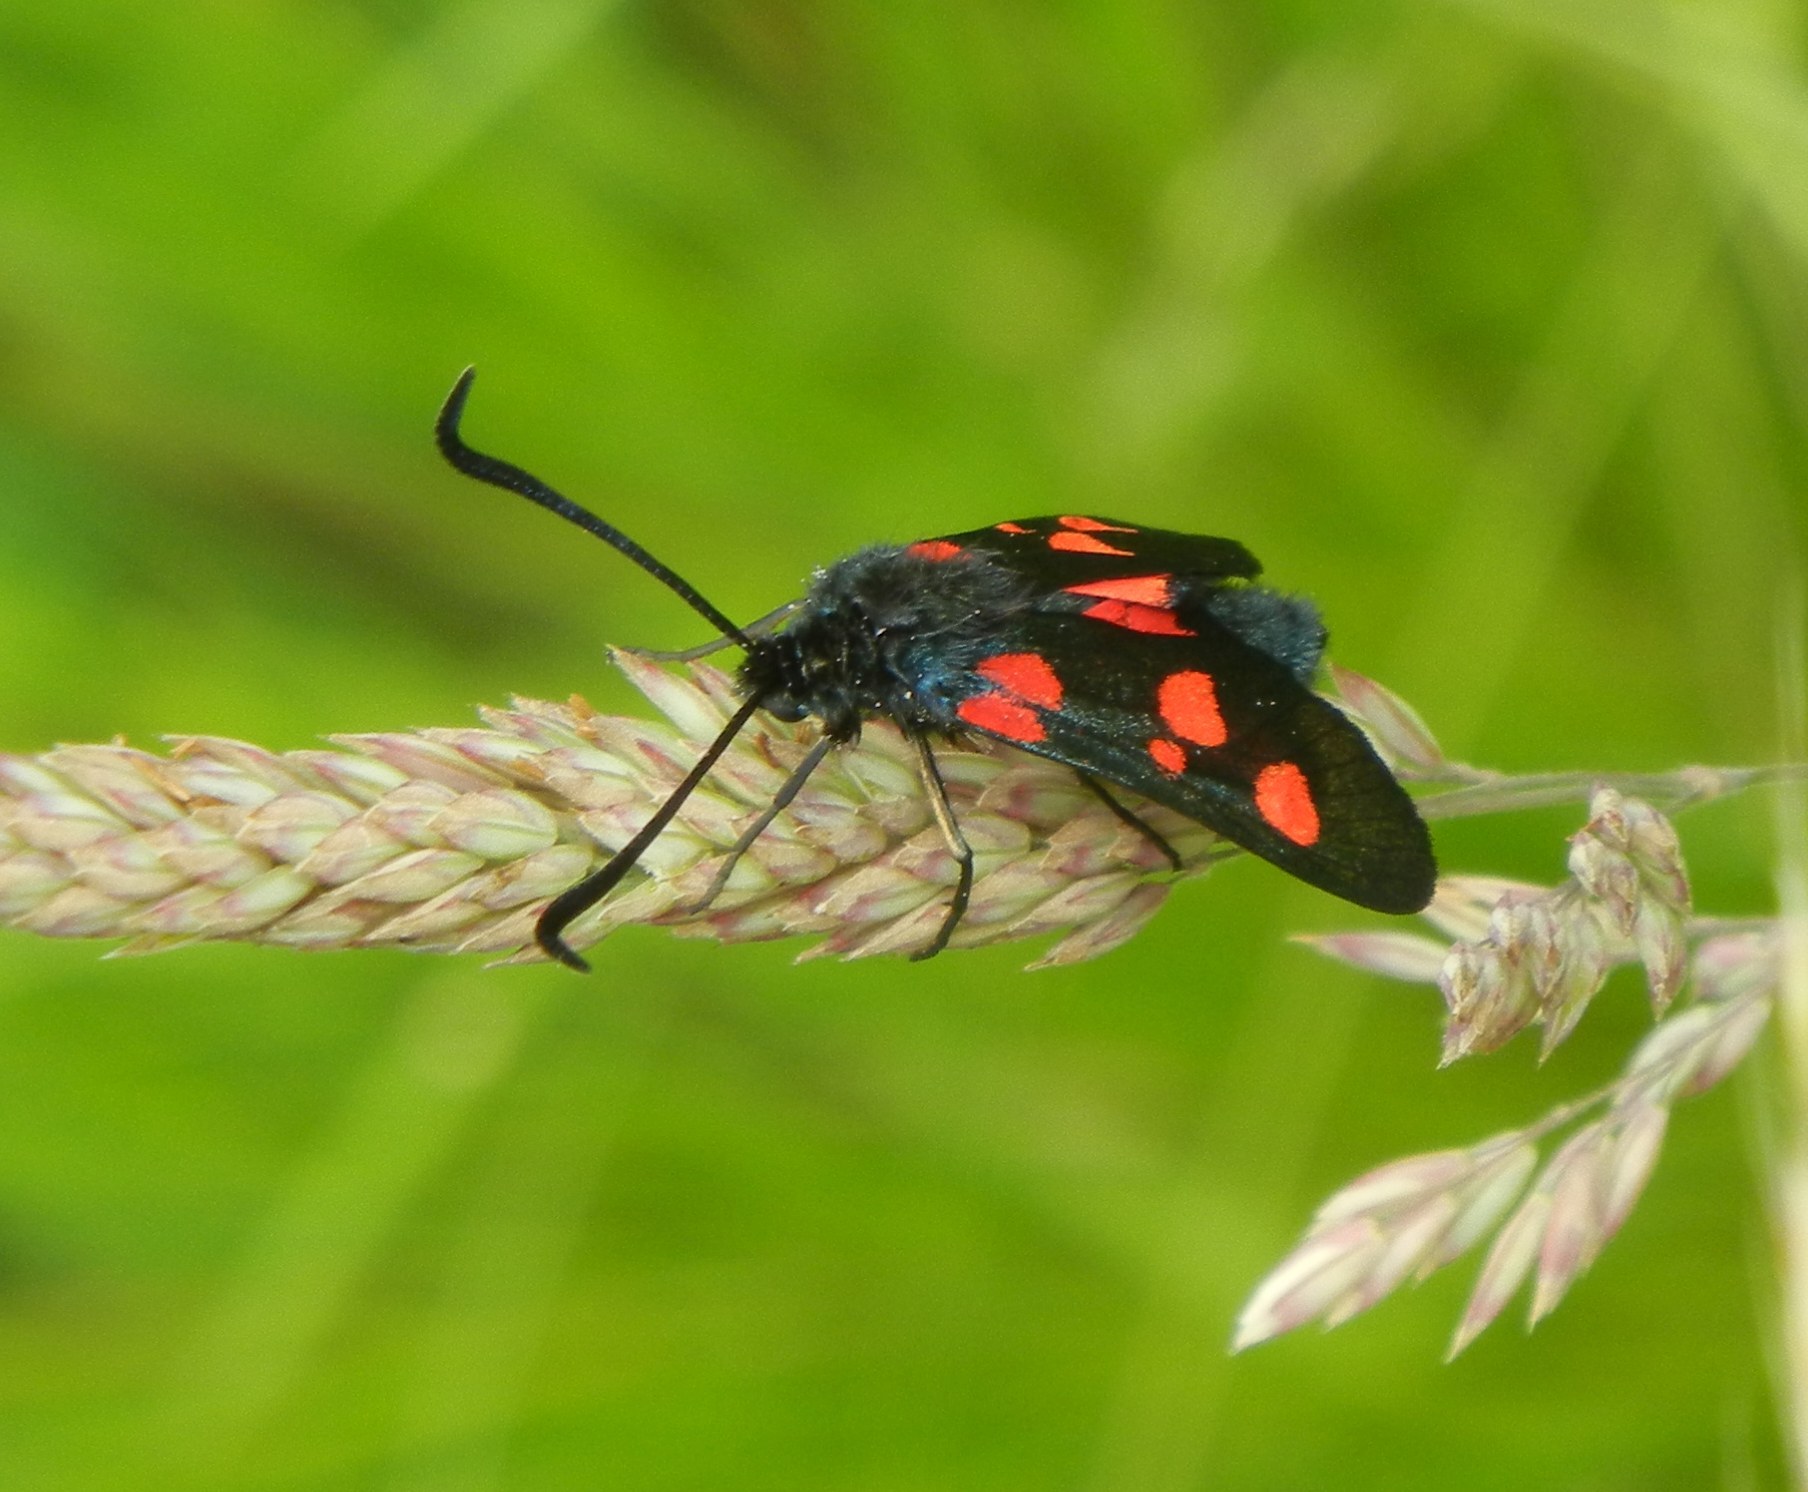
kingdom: Animalia
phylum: Arthropoda
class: Insecta
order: Lepidoptera
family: Zygaenidae
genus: Zygaena
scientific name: Zygaena lonicerae
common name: Narrow-bordered five-spot burnet
